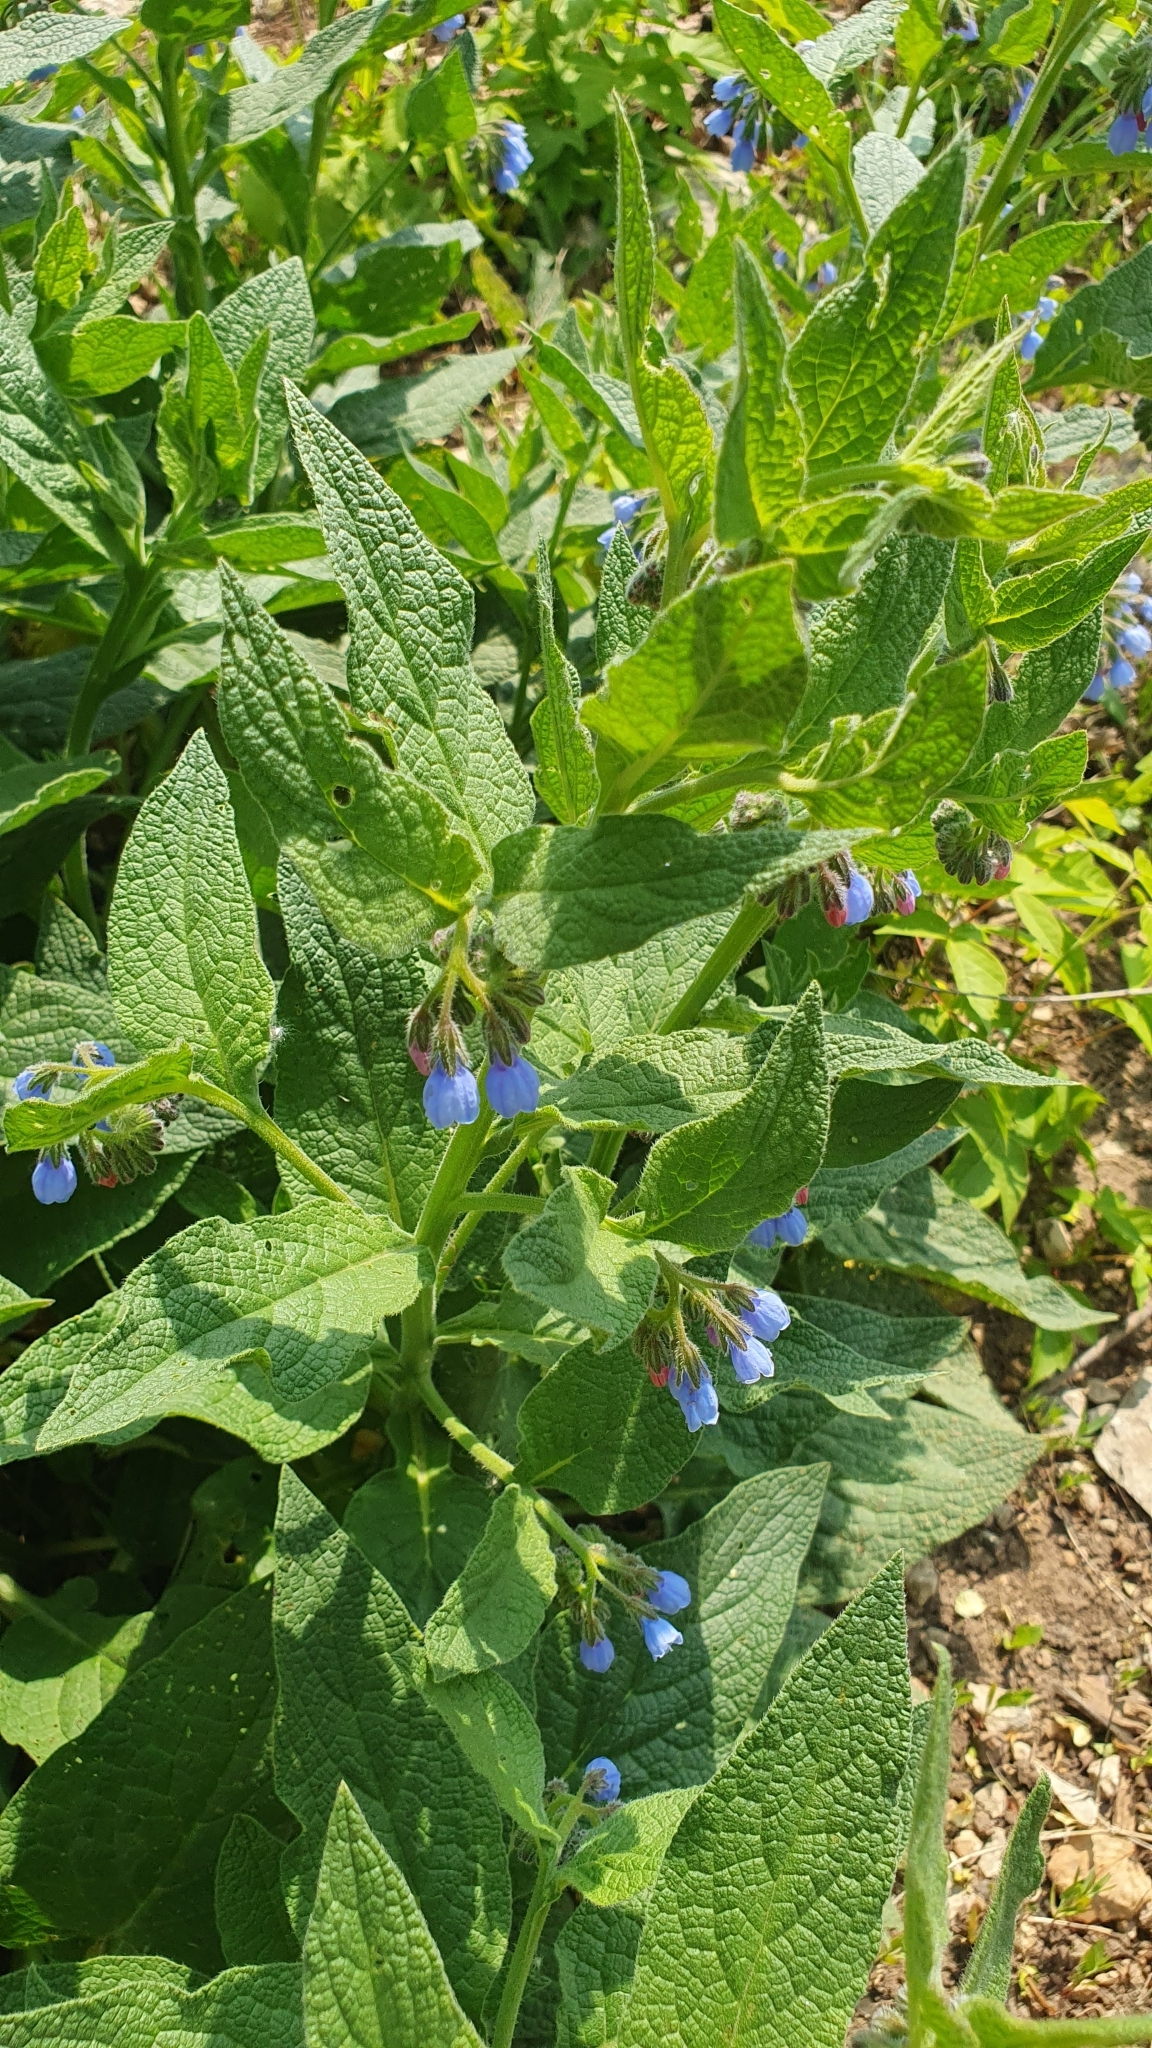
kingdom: Plantae
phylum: Tracheophyta
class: Magnoliopsida
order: Boraginales
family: Boraginaceae
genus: Symphytum
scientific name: Symphytum caucasicum
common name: Caucasian comfrey
